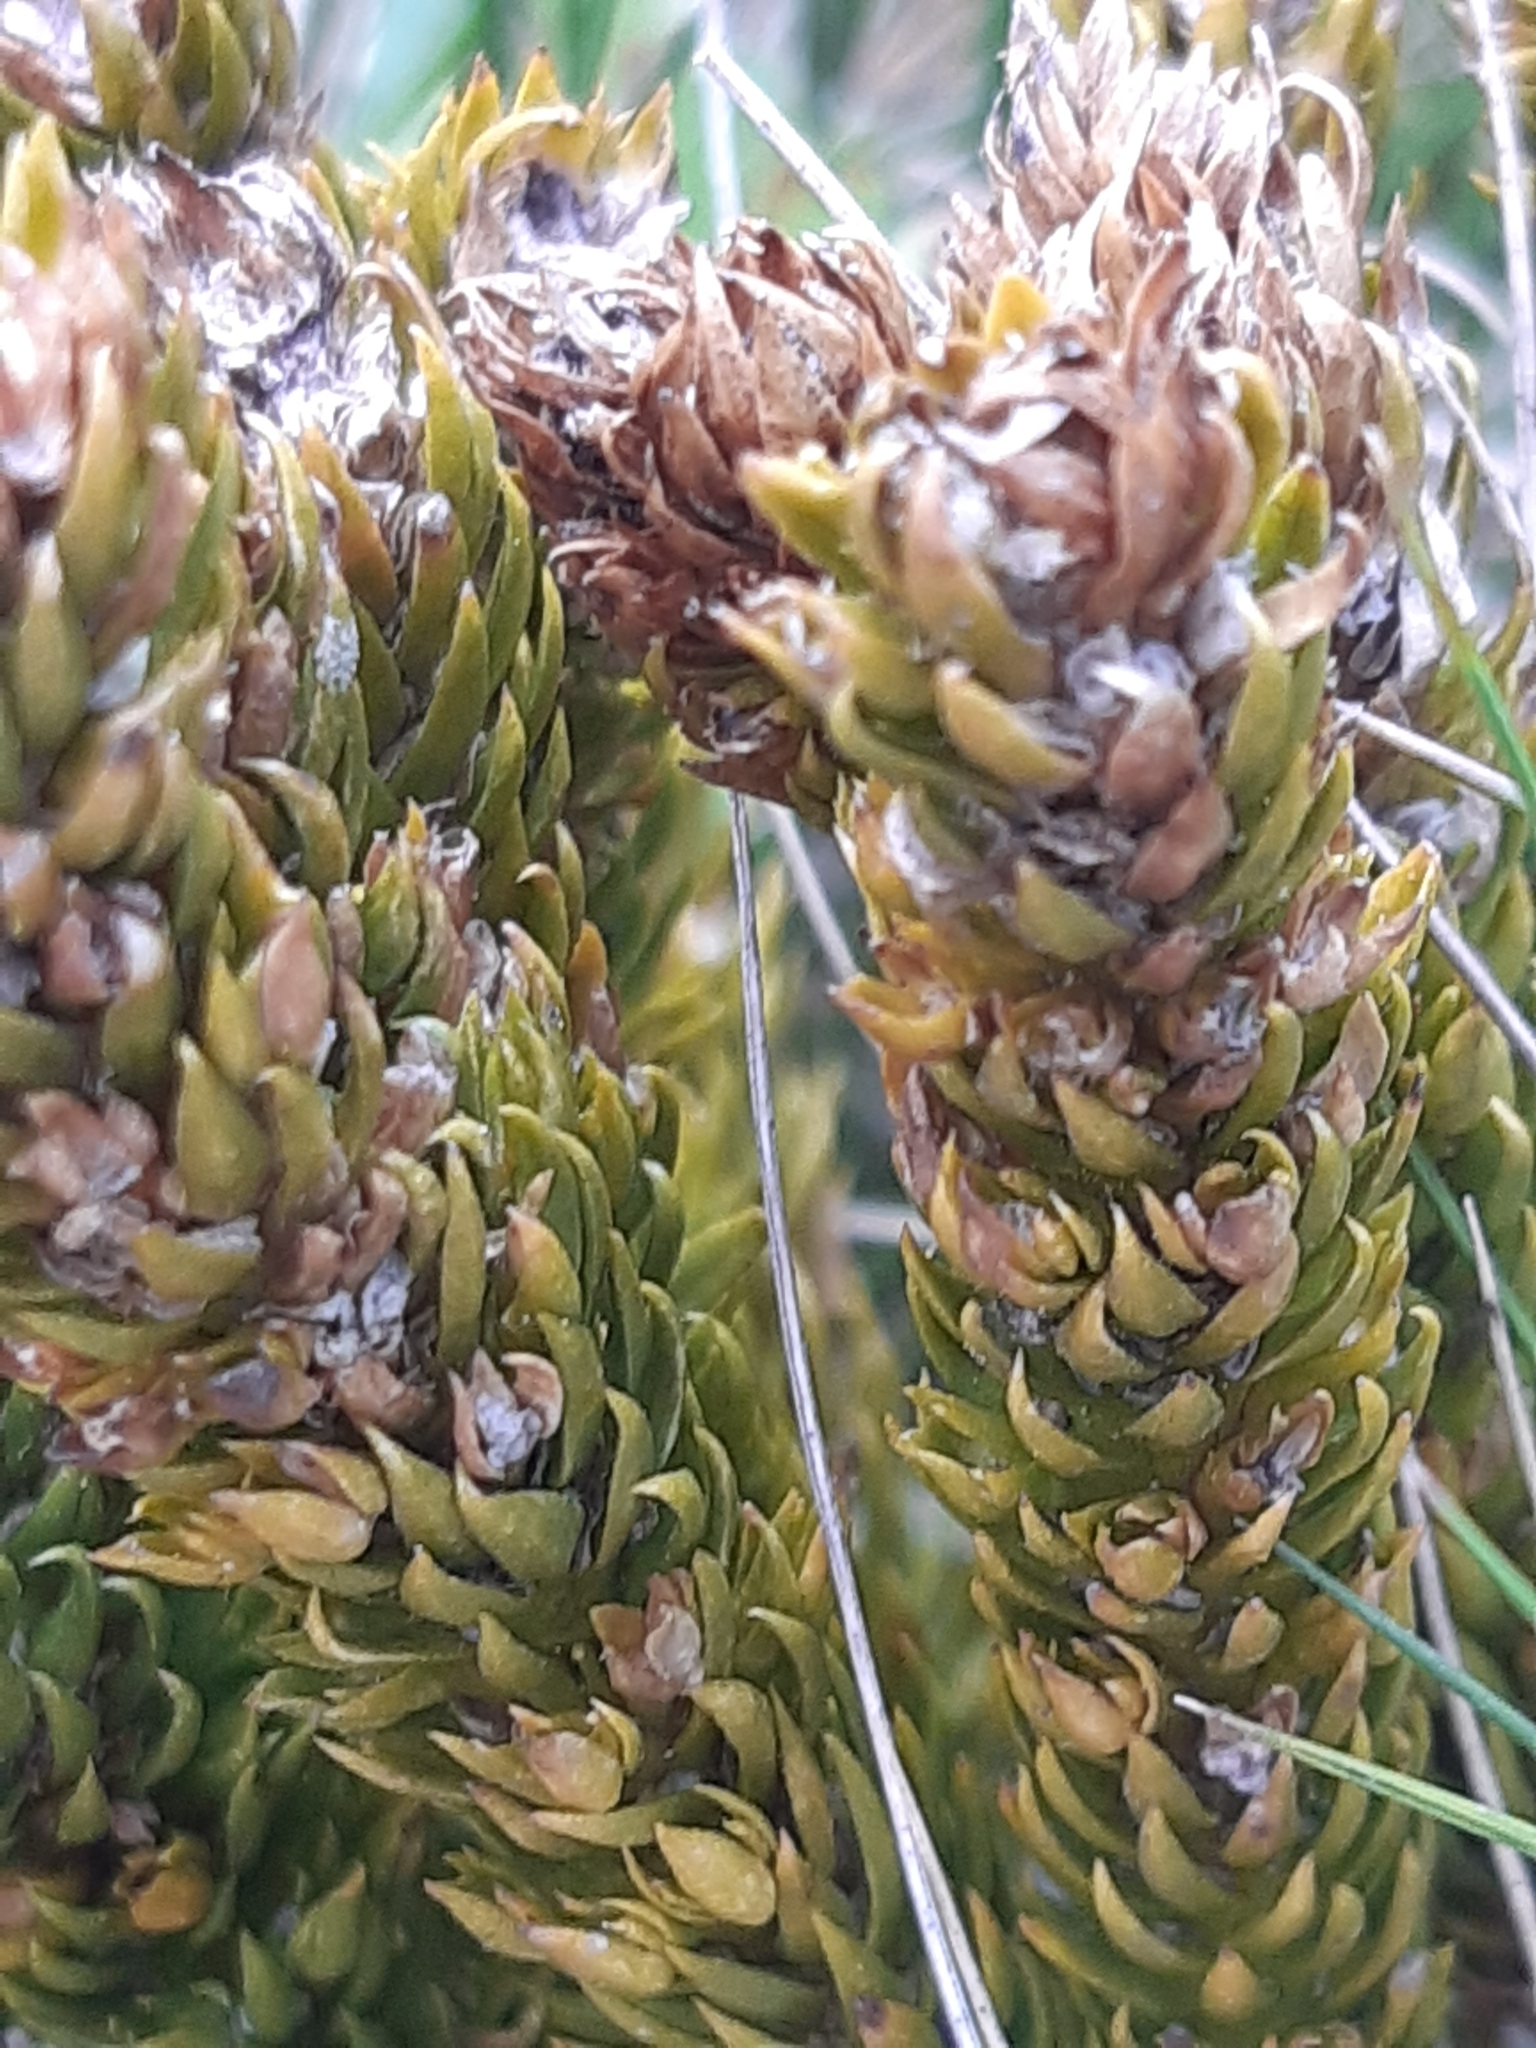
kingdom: Plantae
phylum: Tracheophyta
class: Lycopodiopsida
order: Lycopodiales
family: Lycopodiaceae
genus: Huperzia
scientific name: Huperzia selago
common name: Northern firmoss
